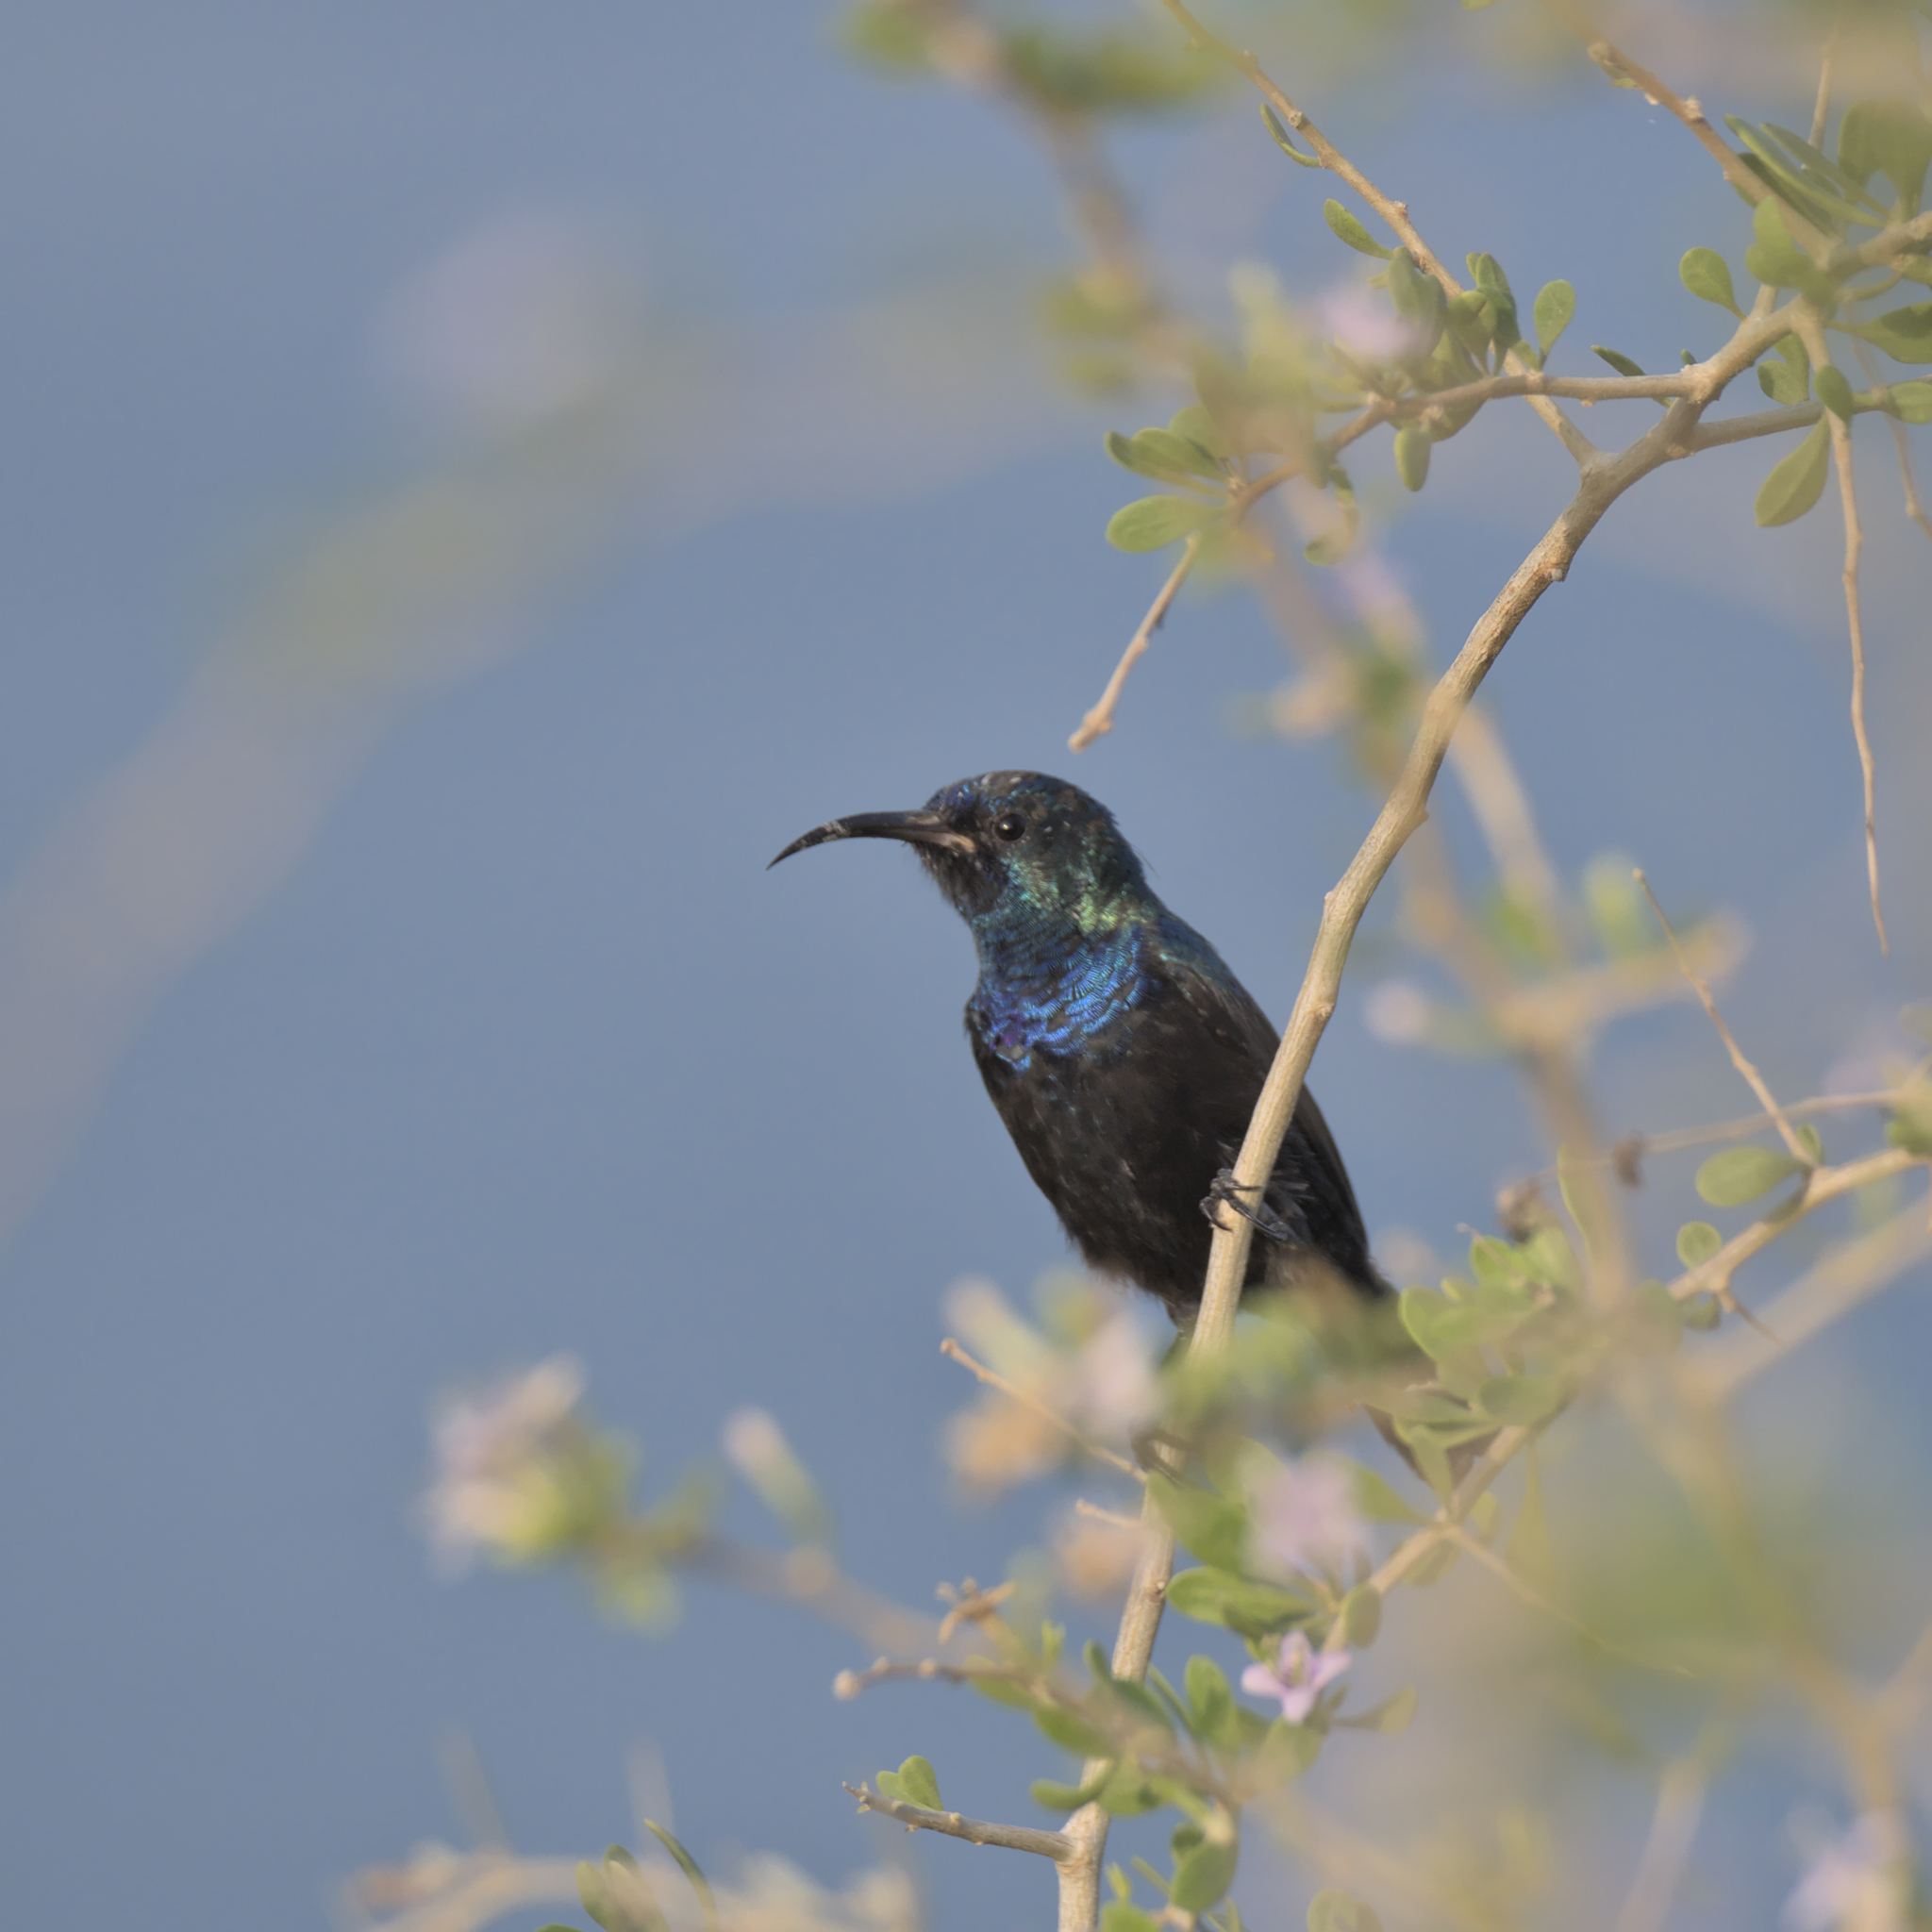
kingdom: Animalia
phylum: Chordata
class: Aves
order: Passeriformes
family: Nectariniidae
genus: Cinnyris
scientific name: Cinnyris osea
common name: Palestine sunbird
